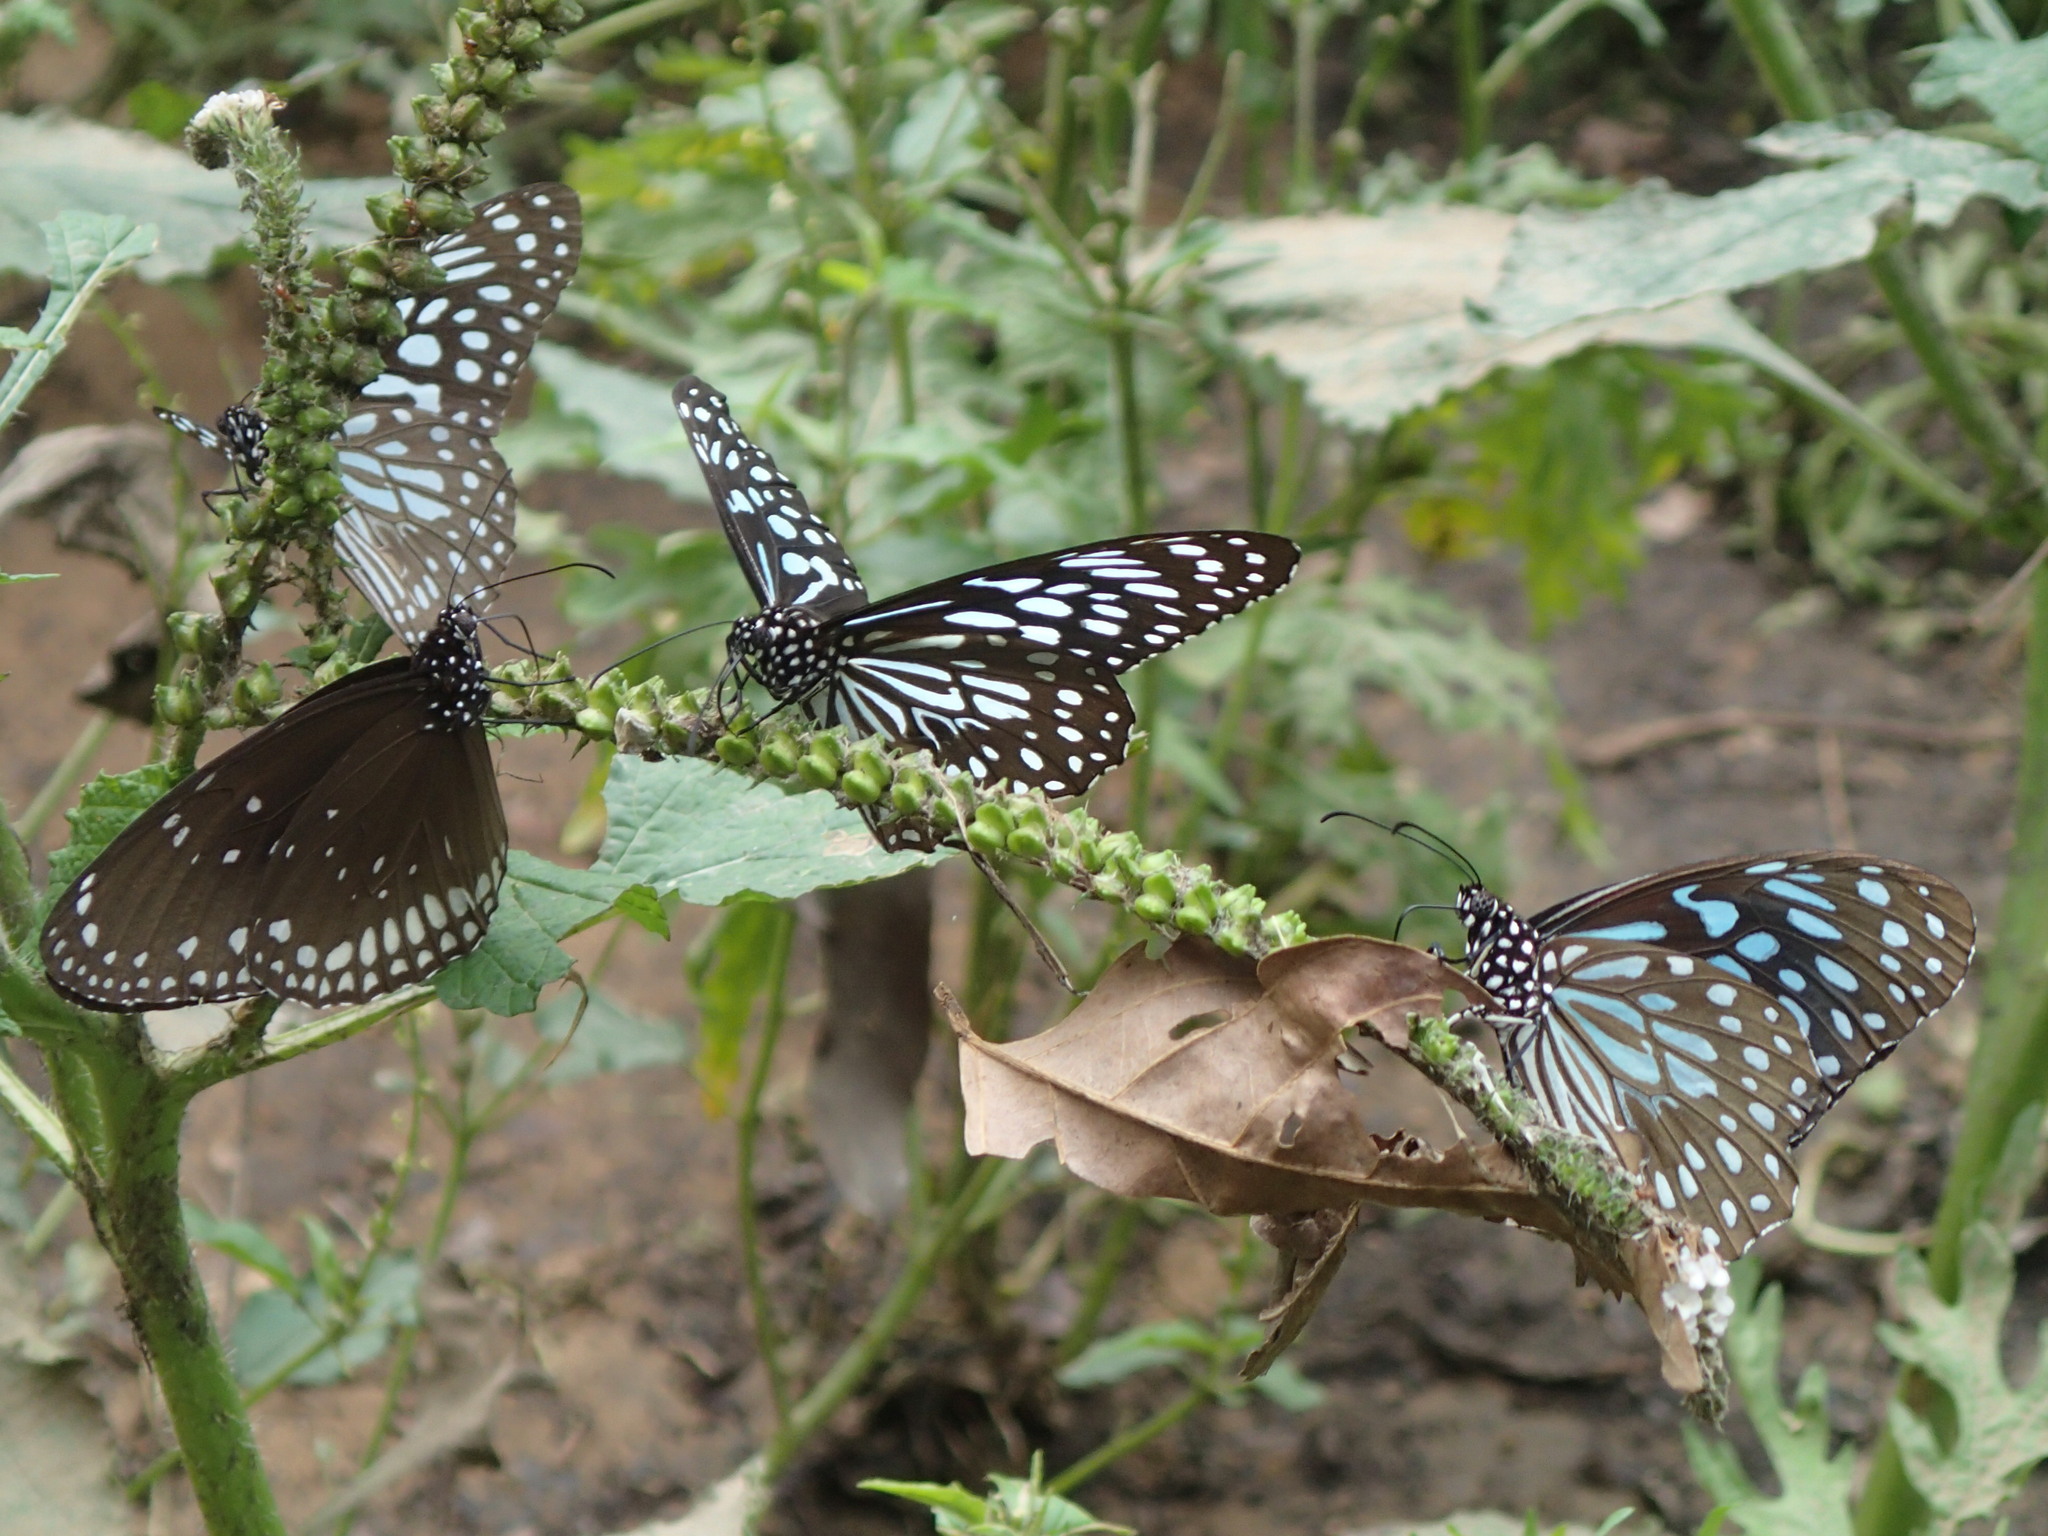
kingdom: Animalia
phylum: Arthropoda
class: Insecta
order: Lepidoptera
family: Nymphalidae
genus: Tirumala
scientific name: Tirumala septentrionis
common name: Dark blue tiger butterfly
